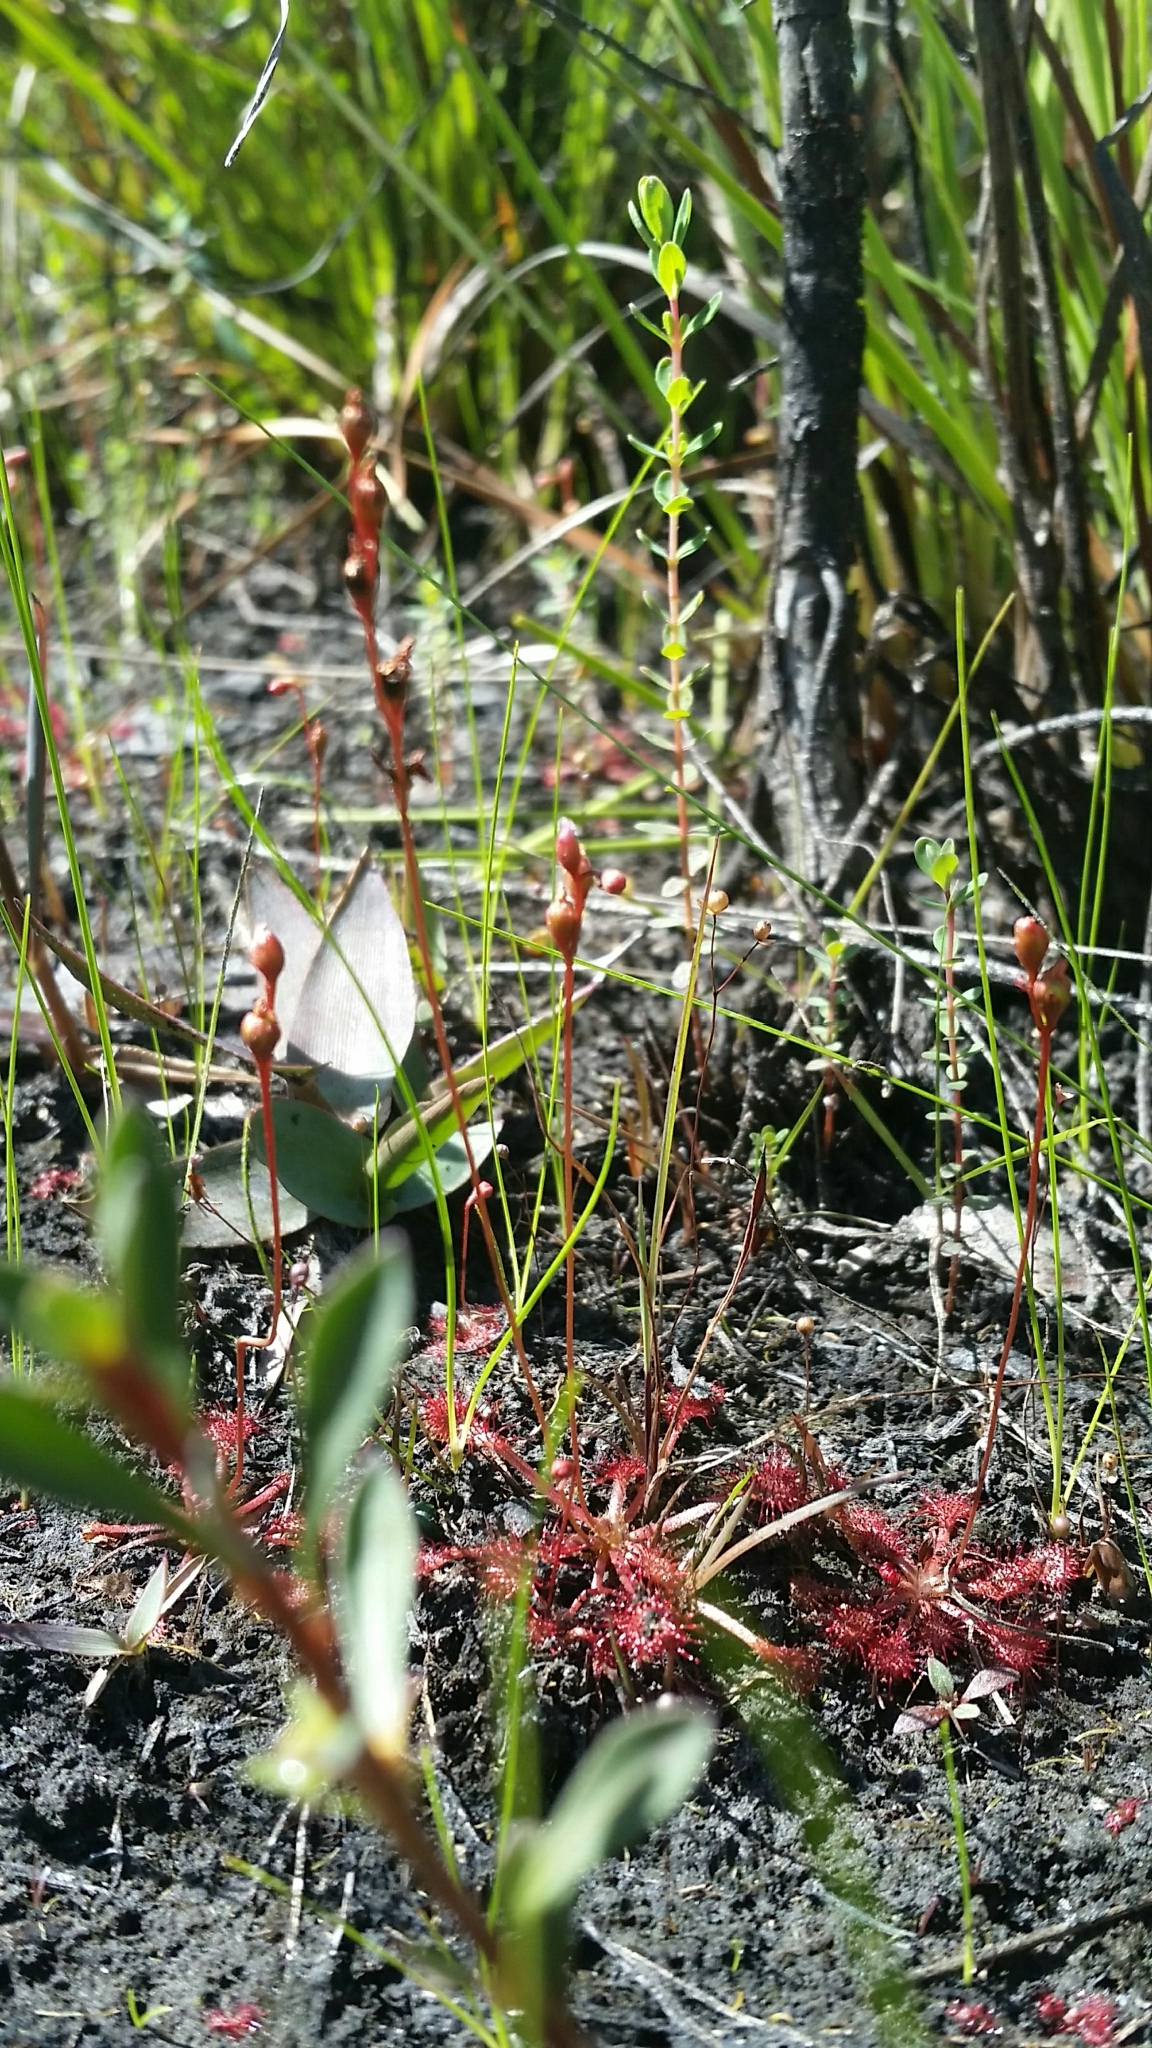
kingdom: Plantae
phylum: Tracheophyta
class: Magnoliopsida
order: Caryophyllales
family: Droseraceae
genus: Drosera
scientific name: Drosera capillaris
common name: Pink sundew
